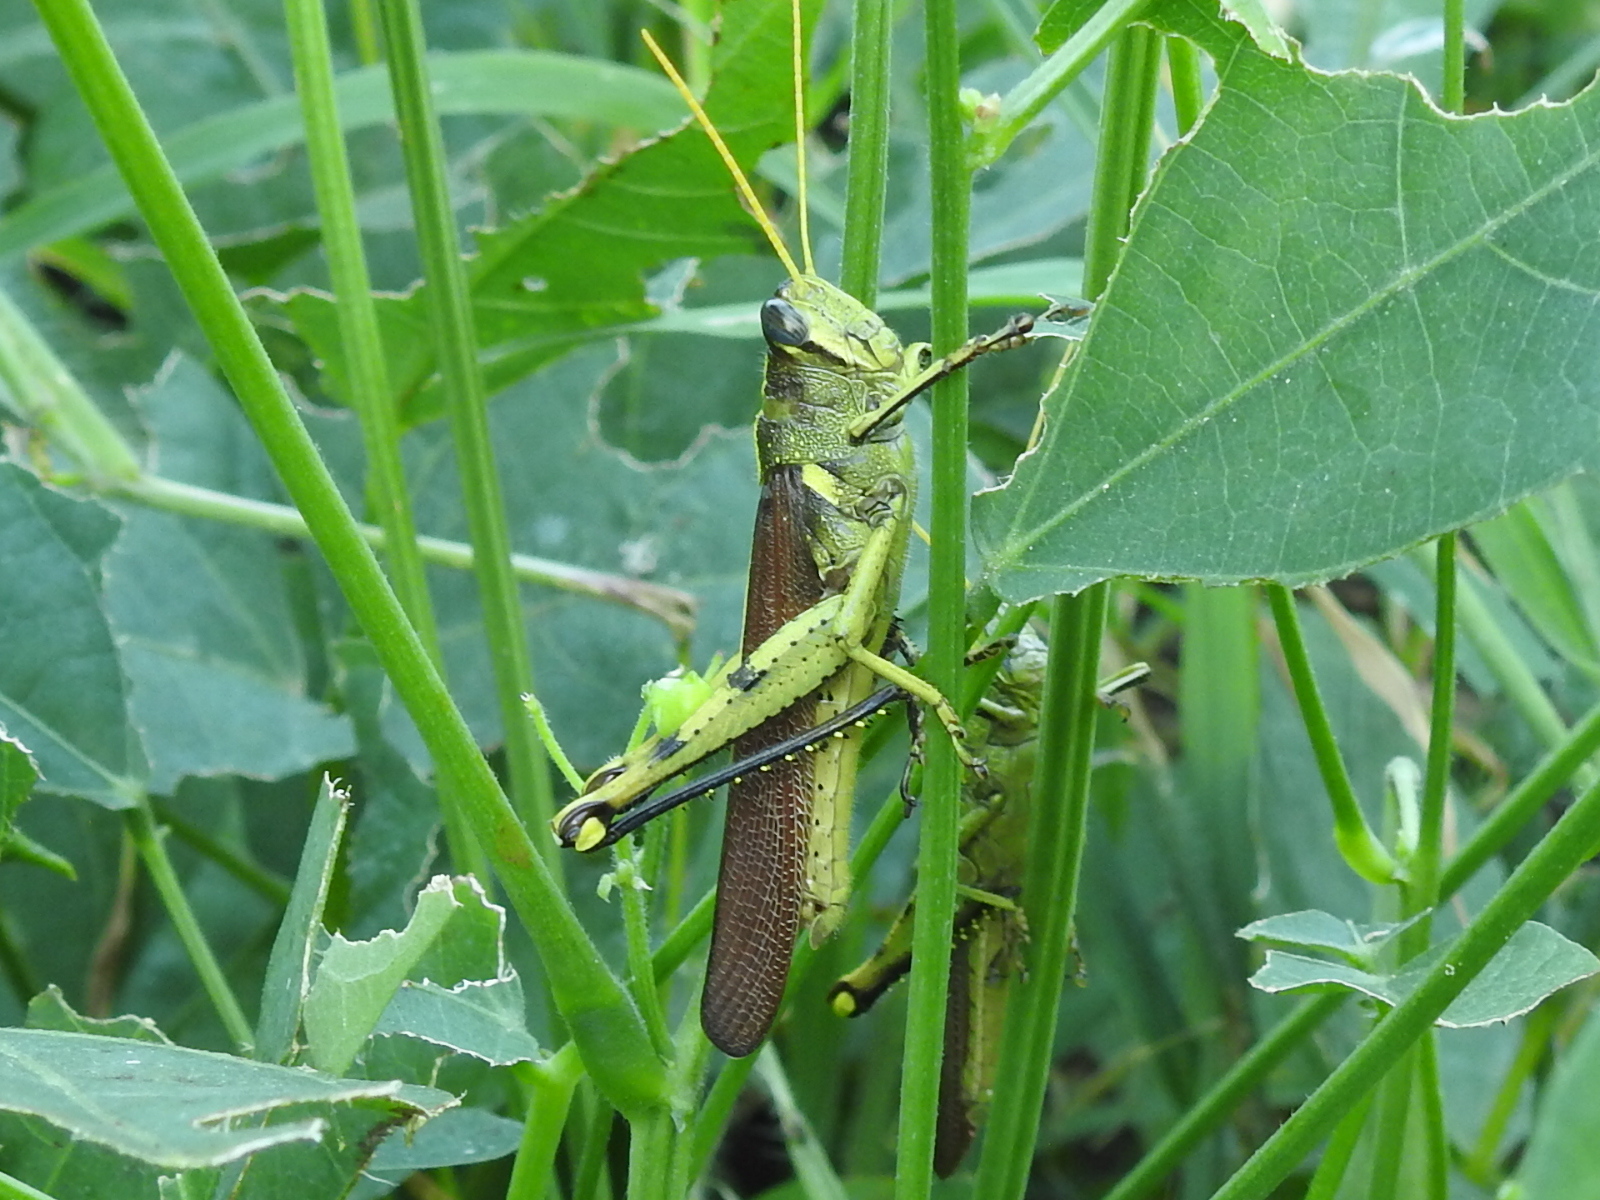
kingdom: Animalia
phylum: Arthropoda
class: Insecta
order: Orthoptera
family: Acrididae
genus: Schistocerca
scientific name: Schistocerca obscura
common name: Obscure bird grasshopper
